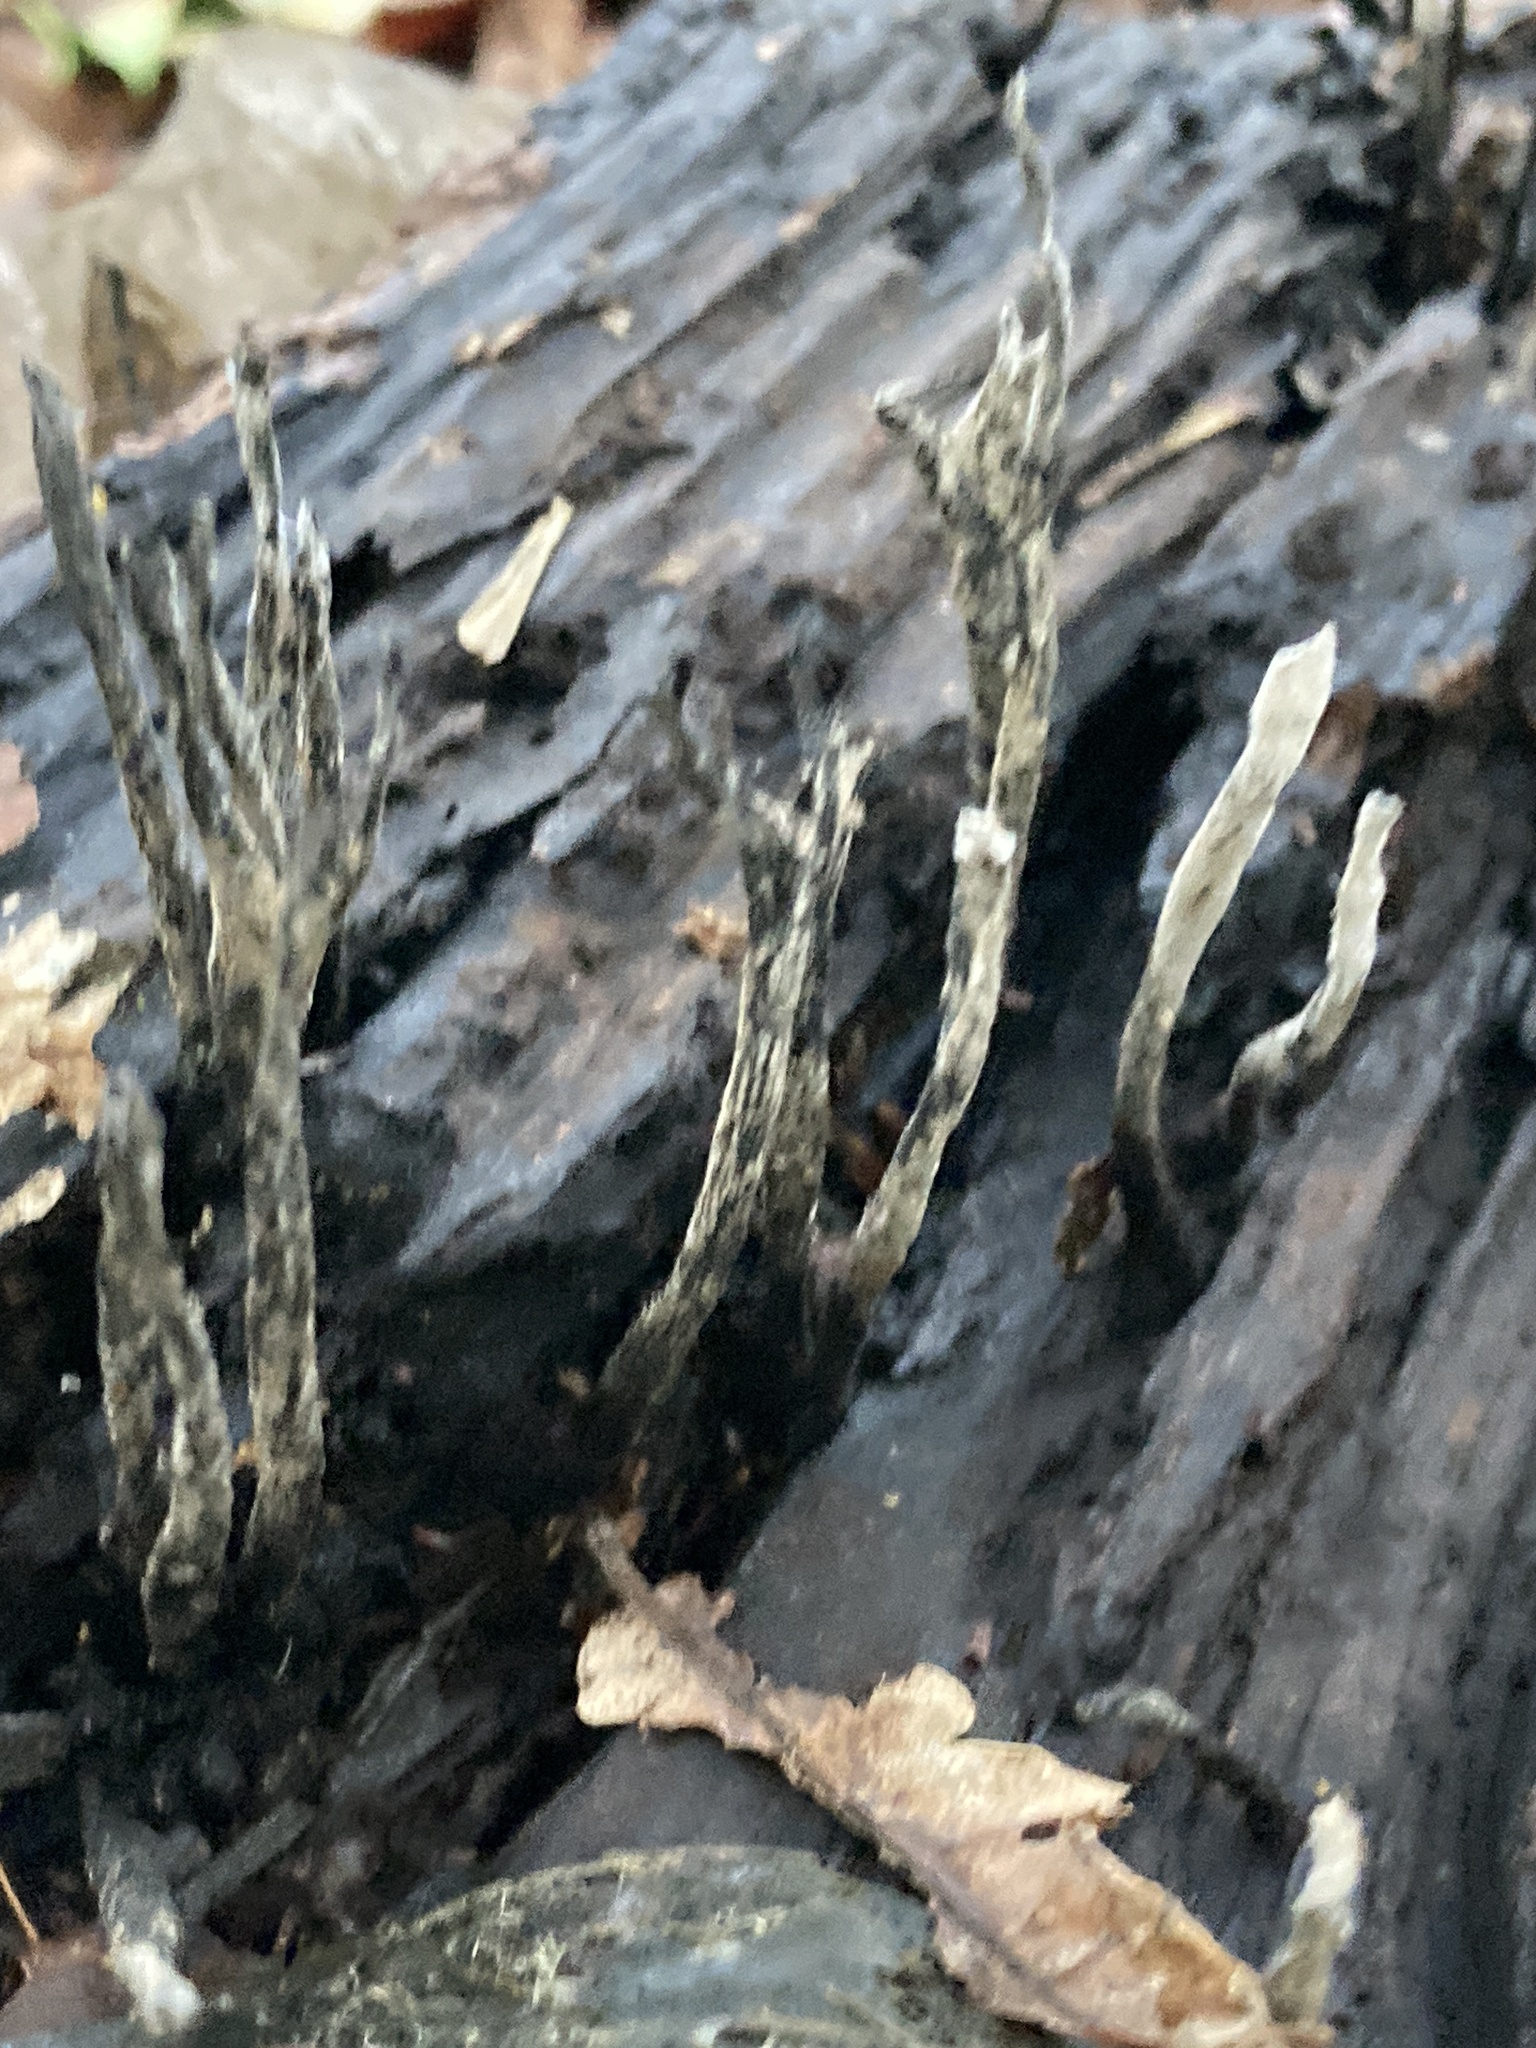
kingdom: Fungi
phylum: Ascomycota
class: Sordariomycetes
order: Xylariales
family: Xylariaceae
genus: Xylaria
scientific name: Xylaria hypoxylon
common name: Candle-snuff fungus
